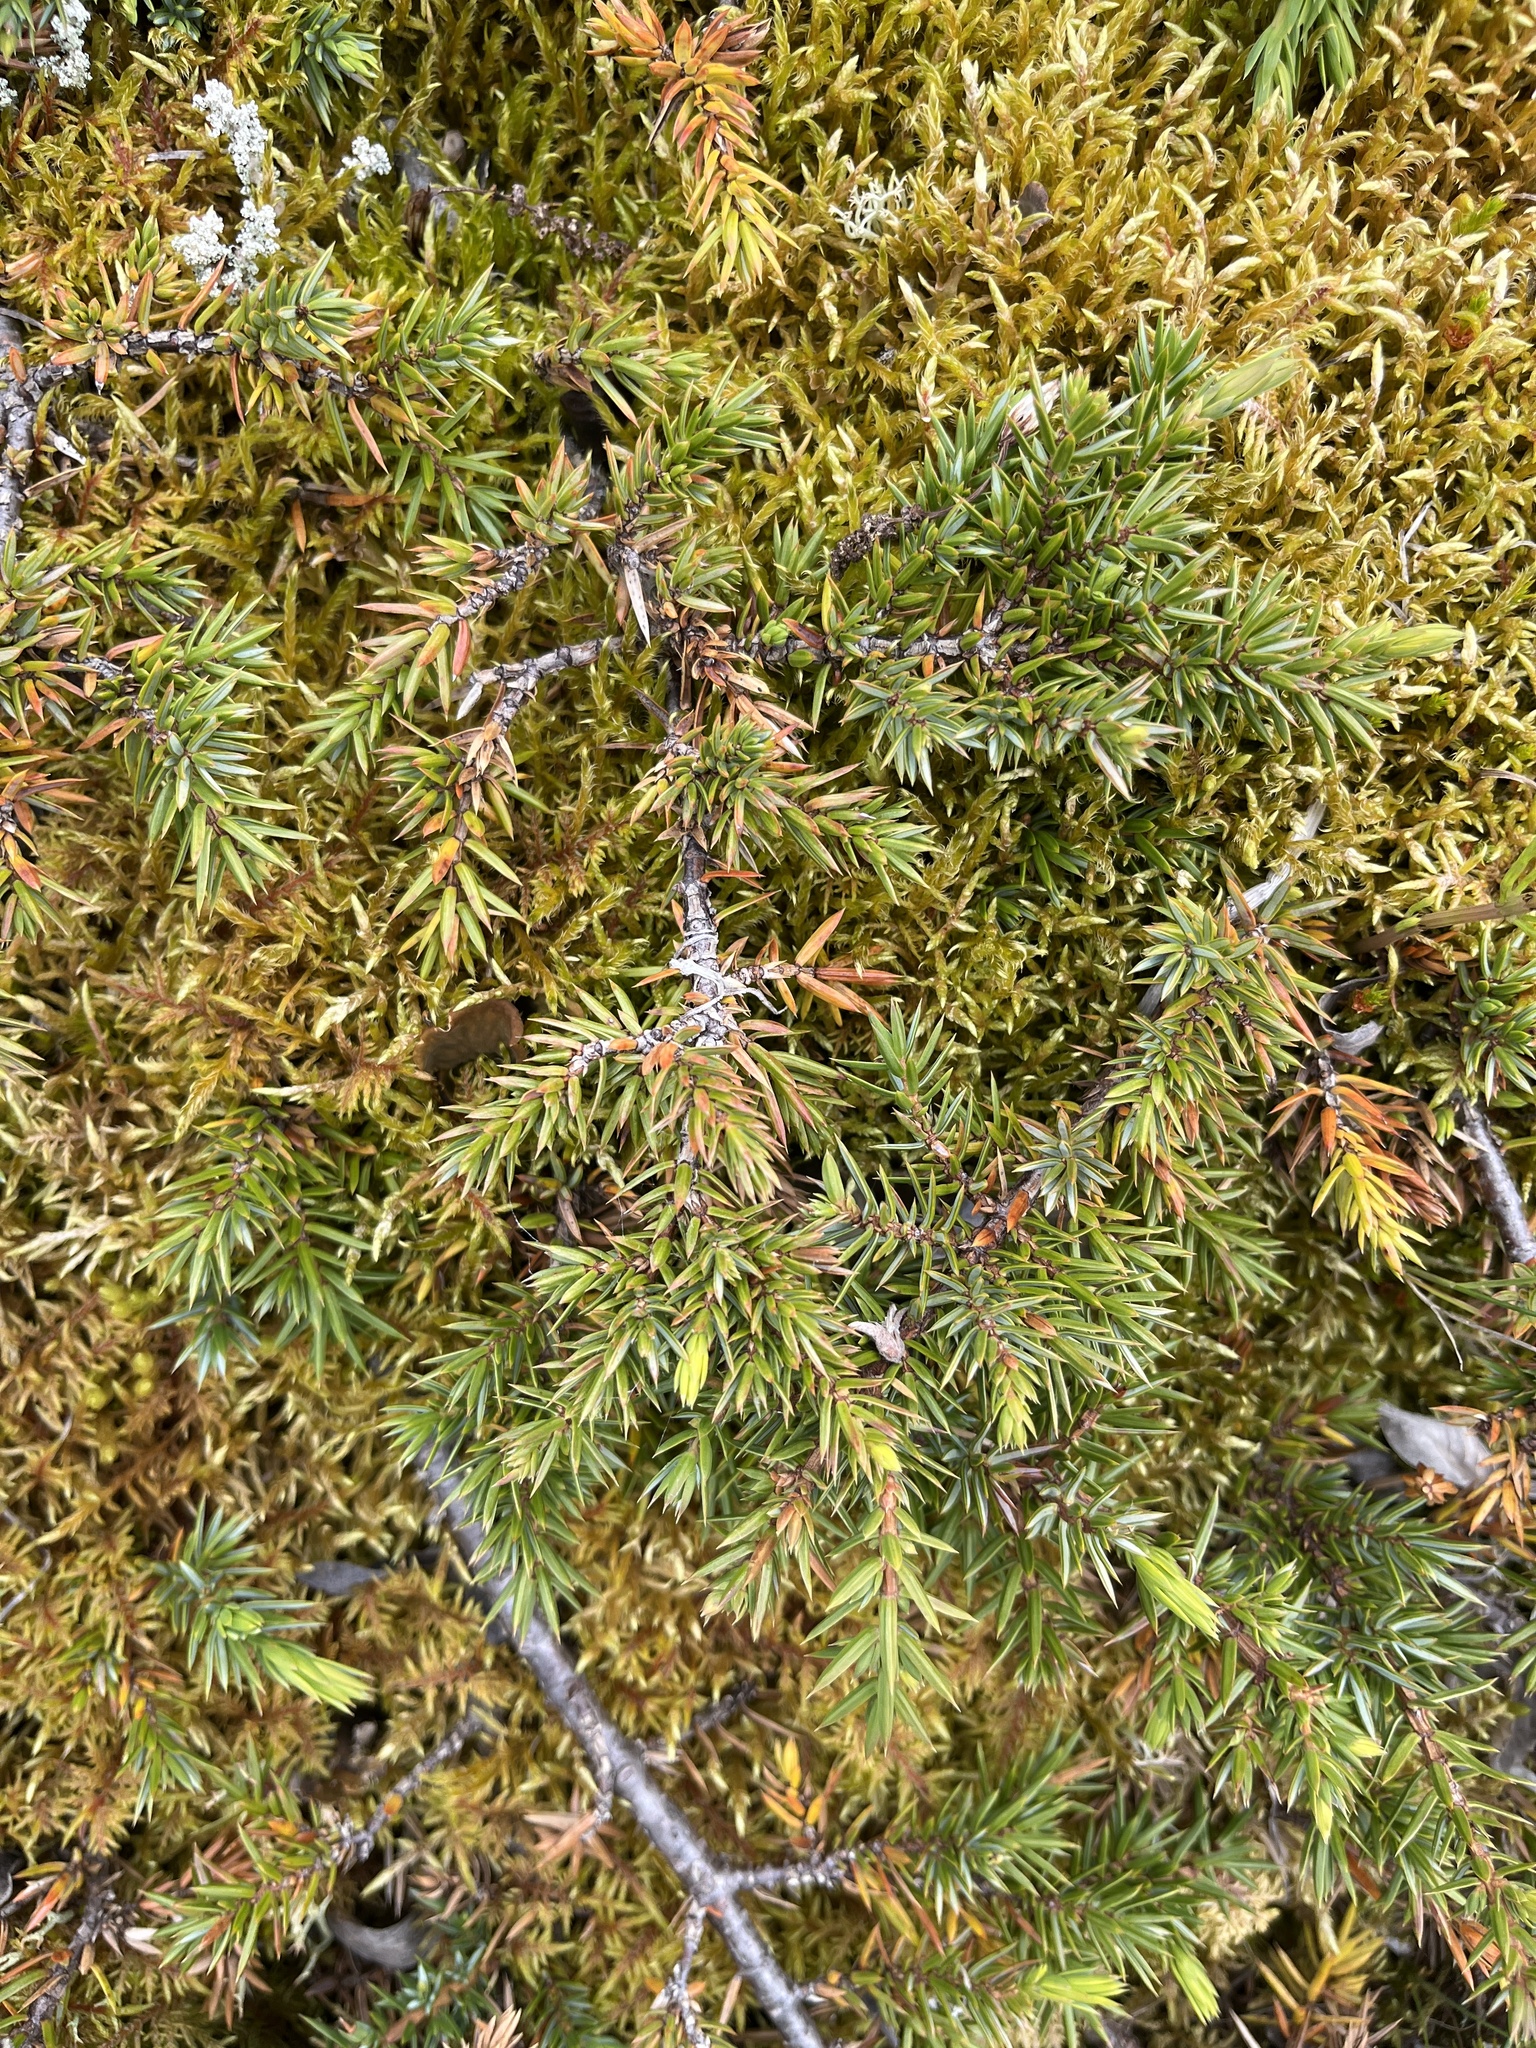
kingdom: Plantae
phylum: Tracheophyta
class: Pinopsida
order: Pinales
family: Cupressaceae
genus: Juniperus
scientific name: Juniperus communis
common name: Common juniper
